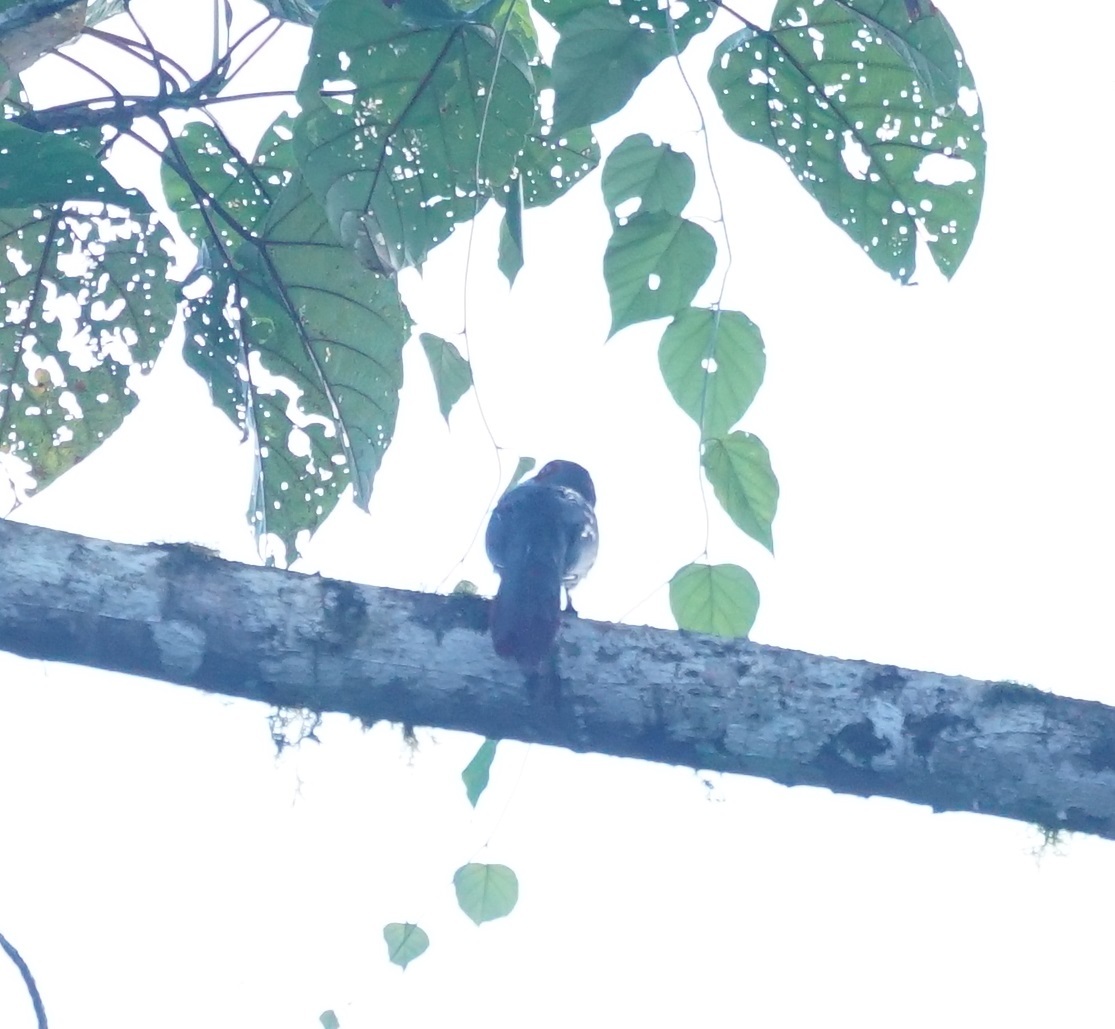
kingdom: Animalia
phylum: Chordata
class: Aves
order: Cuculiformes
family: Cuculidae
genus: Zanclostomus
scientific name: Zanclostomus curvirostris
